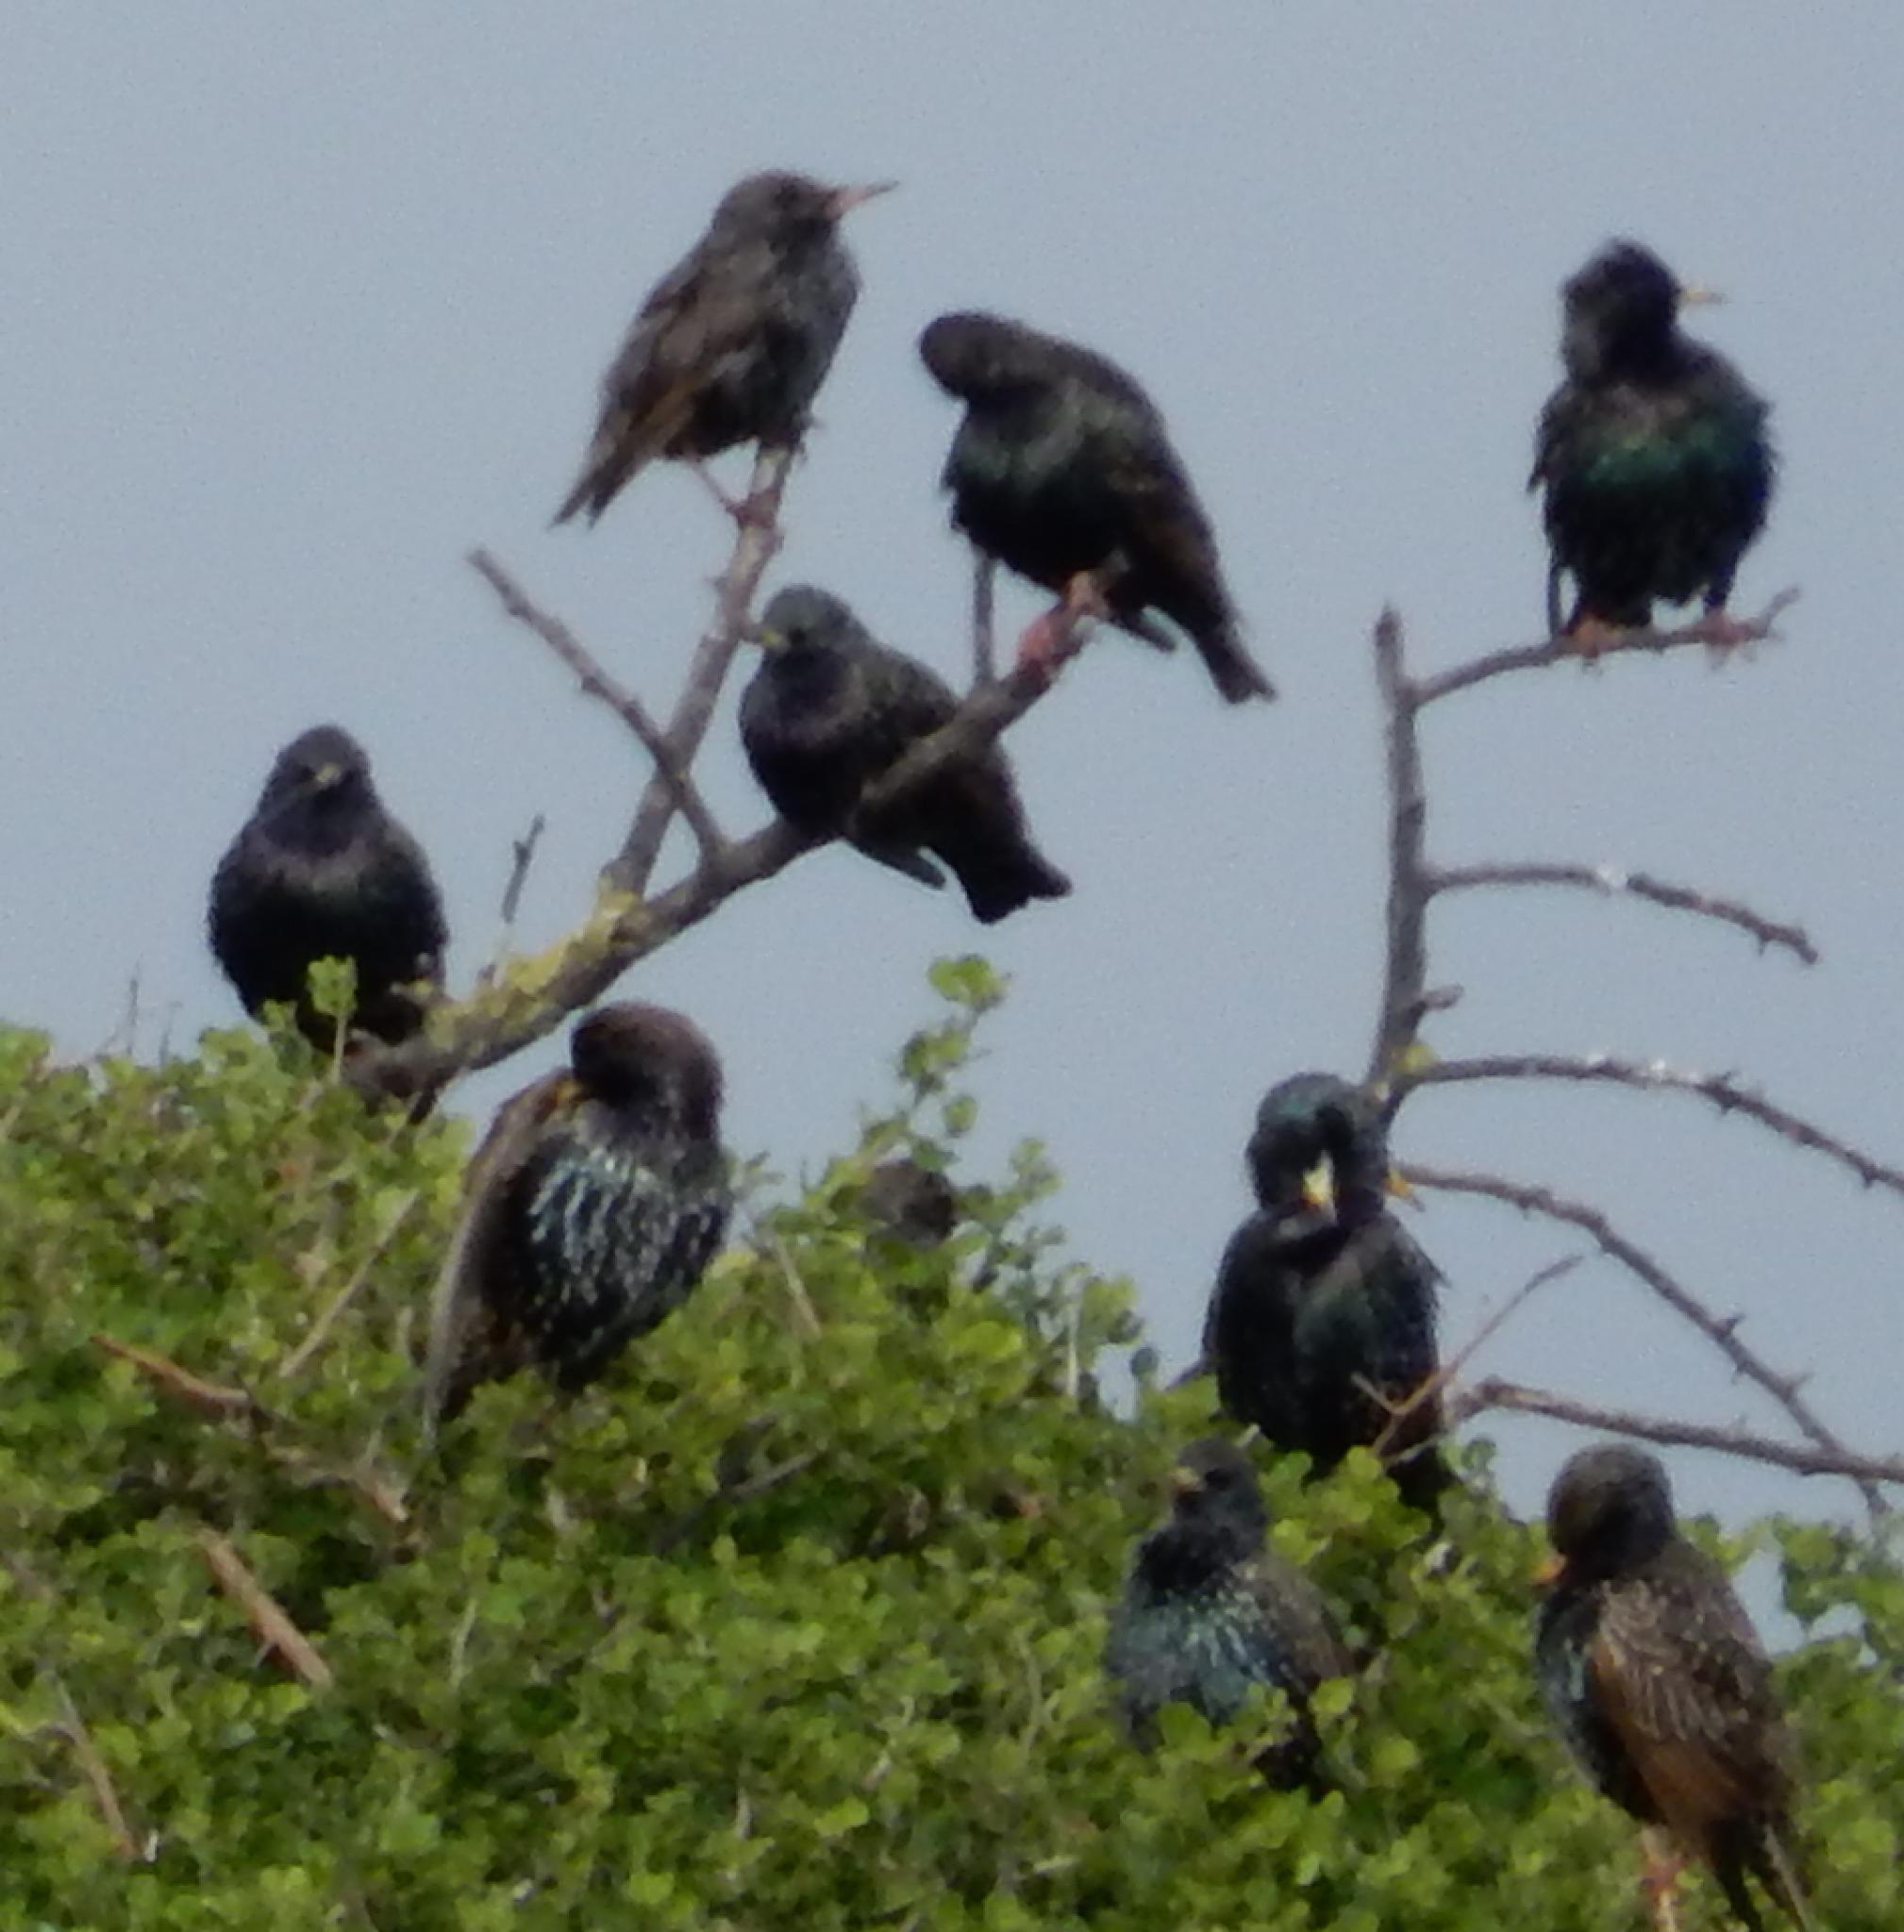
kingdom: Animalia
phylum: Chordata
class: Aves
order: Passeriformes
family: Sturnidae
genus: Sturnus
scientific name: Sturnus vulgaris
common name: Common starling
